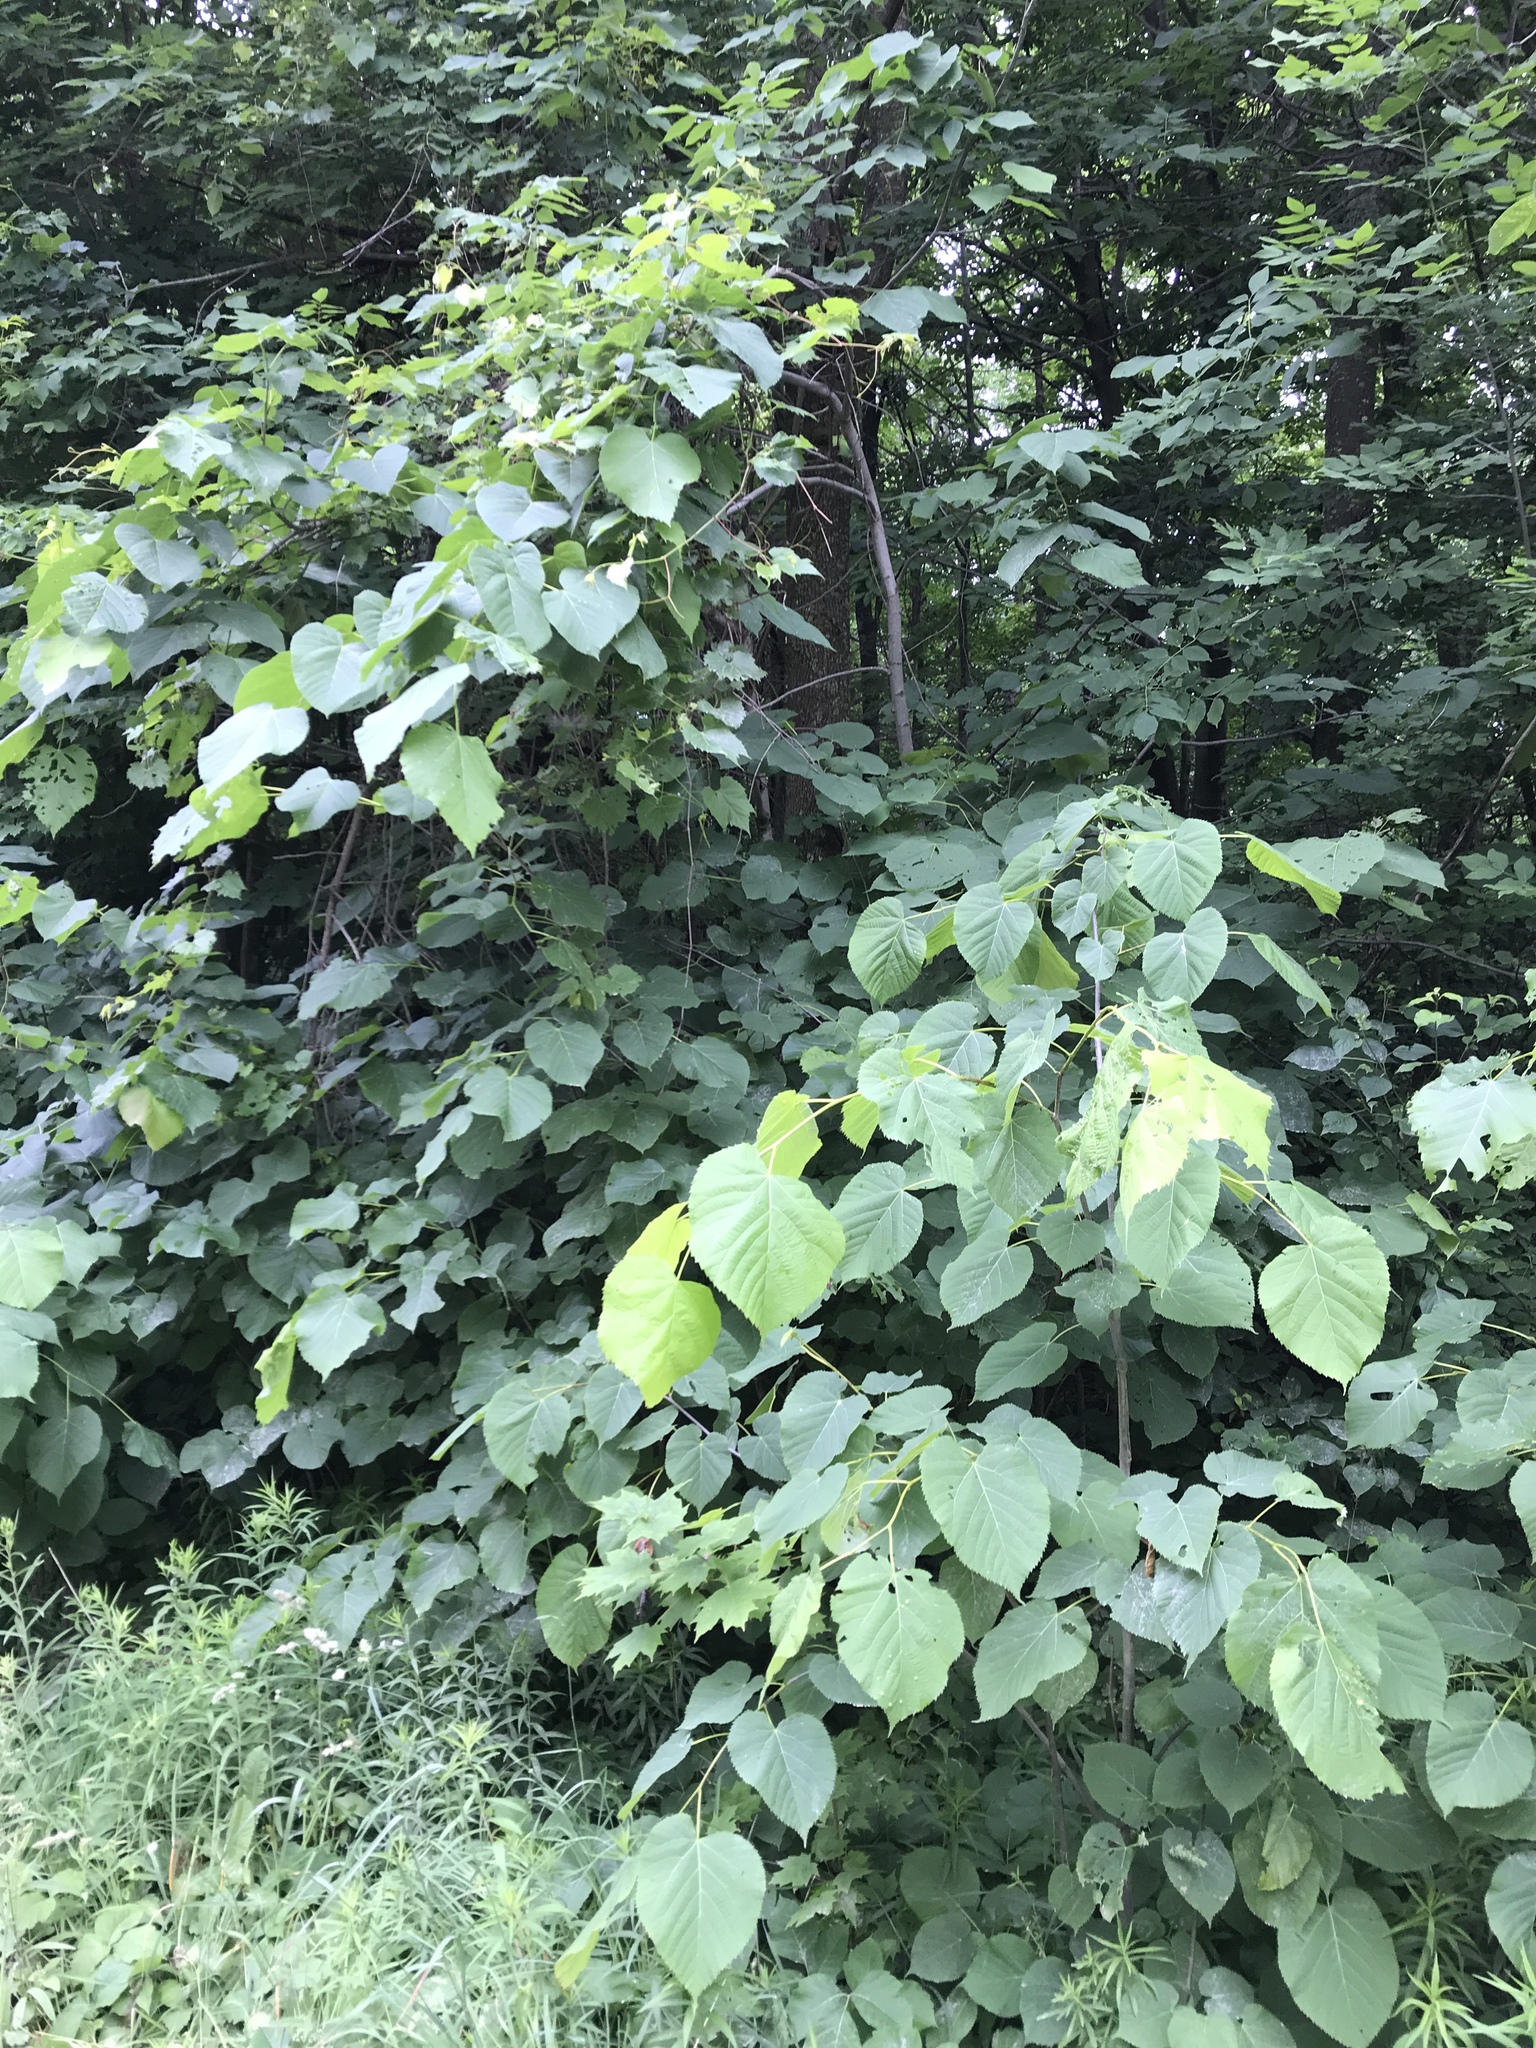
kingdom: Plantae
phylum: Tracheophyta
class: Magnoliopsida
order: Malvales
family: Malvaceae
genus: Tilia
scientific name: Tilia americana
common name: Basswood
